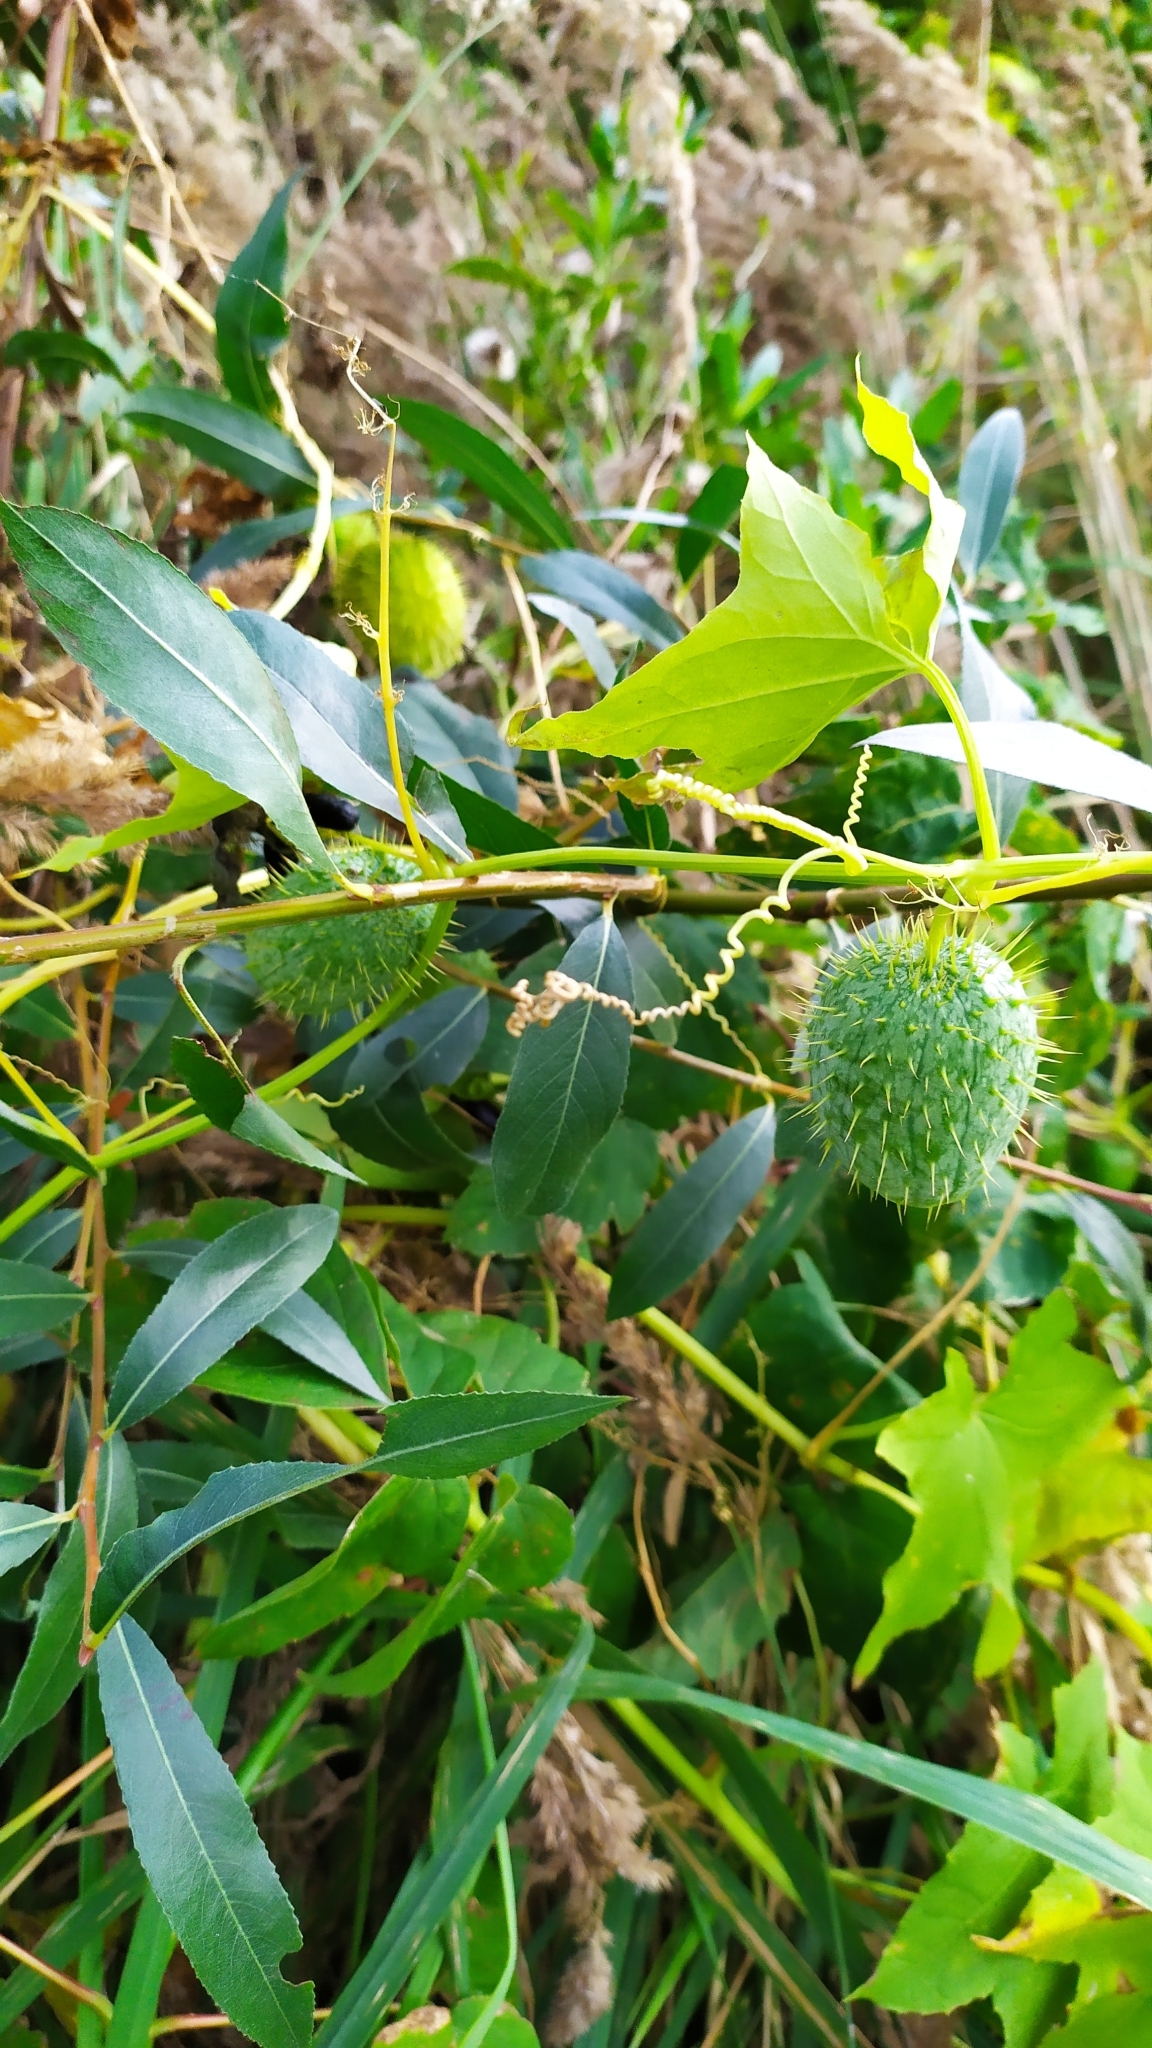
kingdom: Plantae
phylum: Tracheophyta
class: Magnoliopsida
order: Cucurbitales
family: Cucurbitaceae
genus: Echinocystis
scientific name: Echinocystis lobata
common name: Wild cucumber
